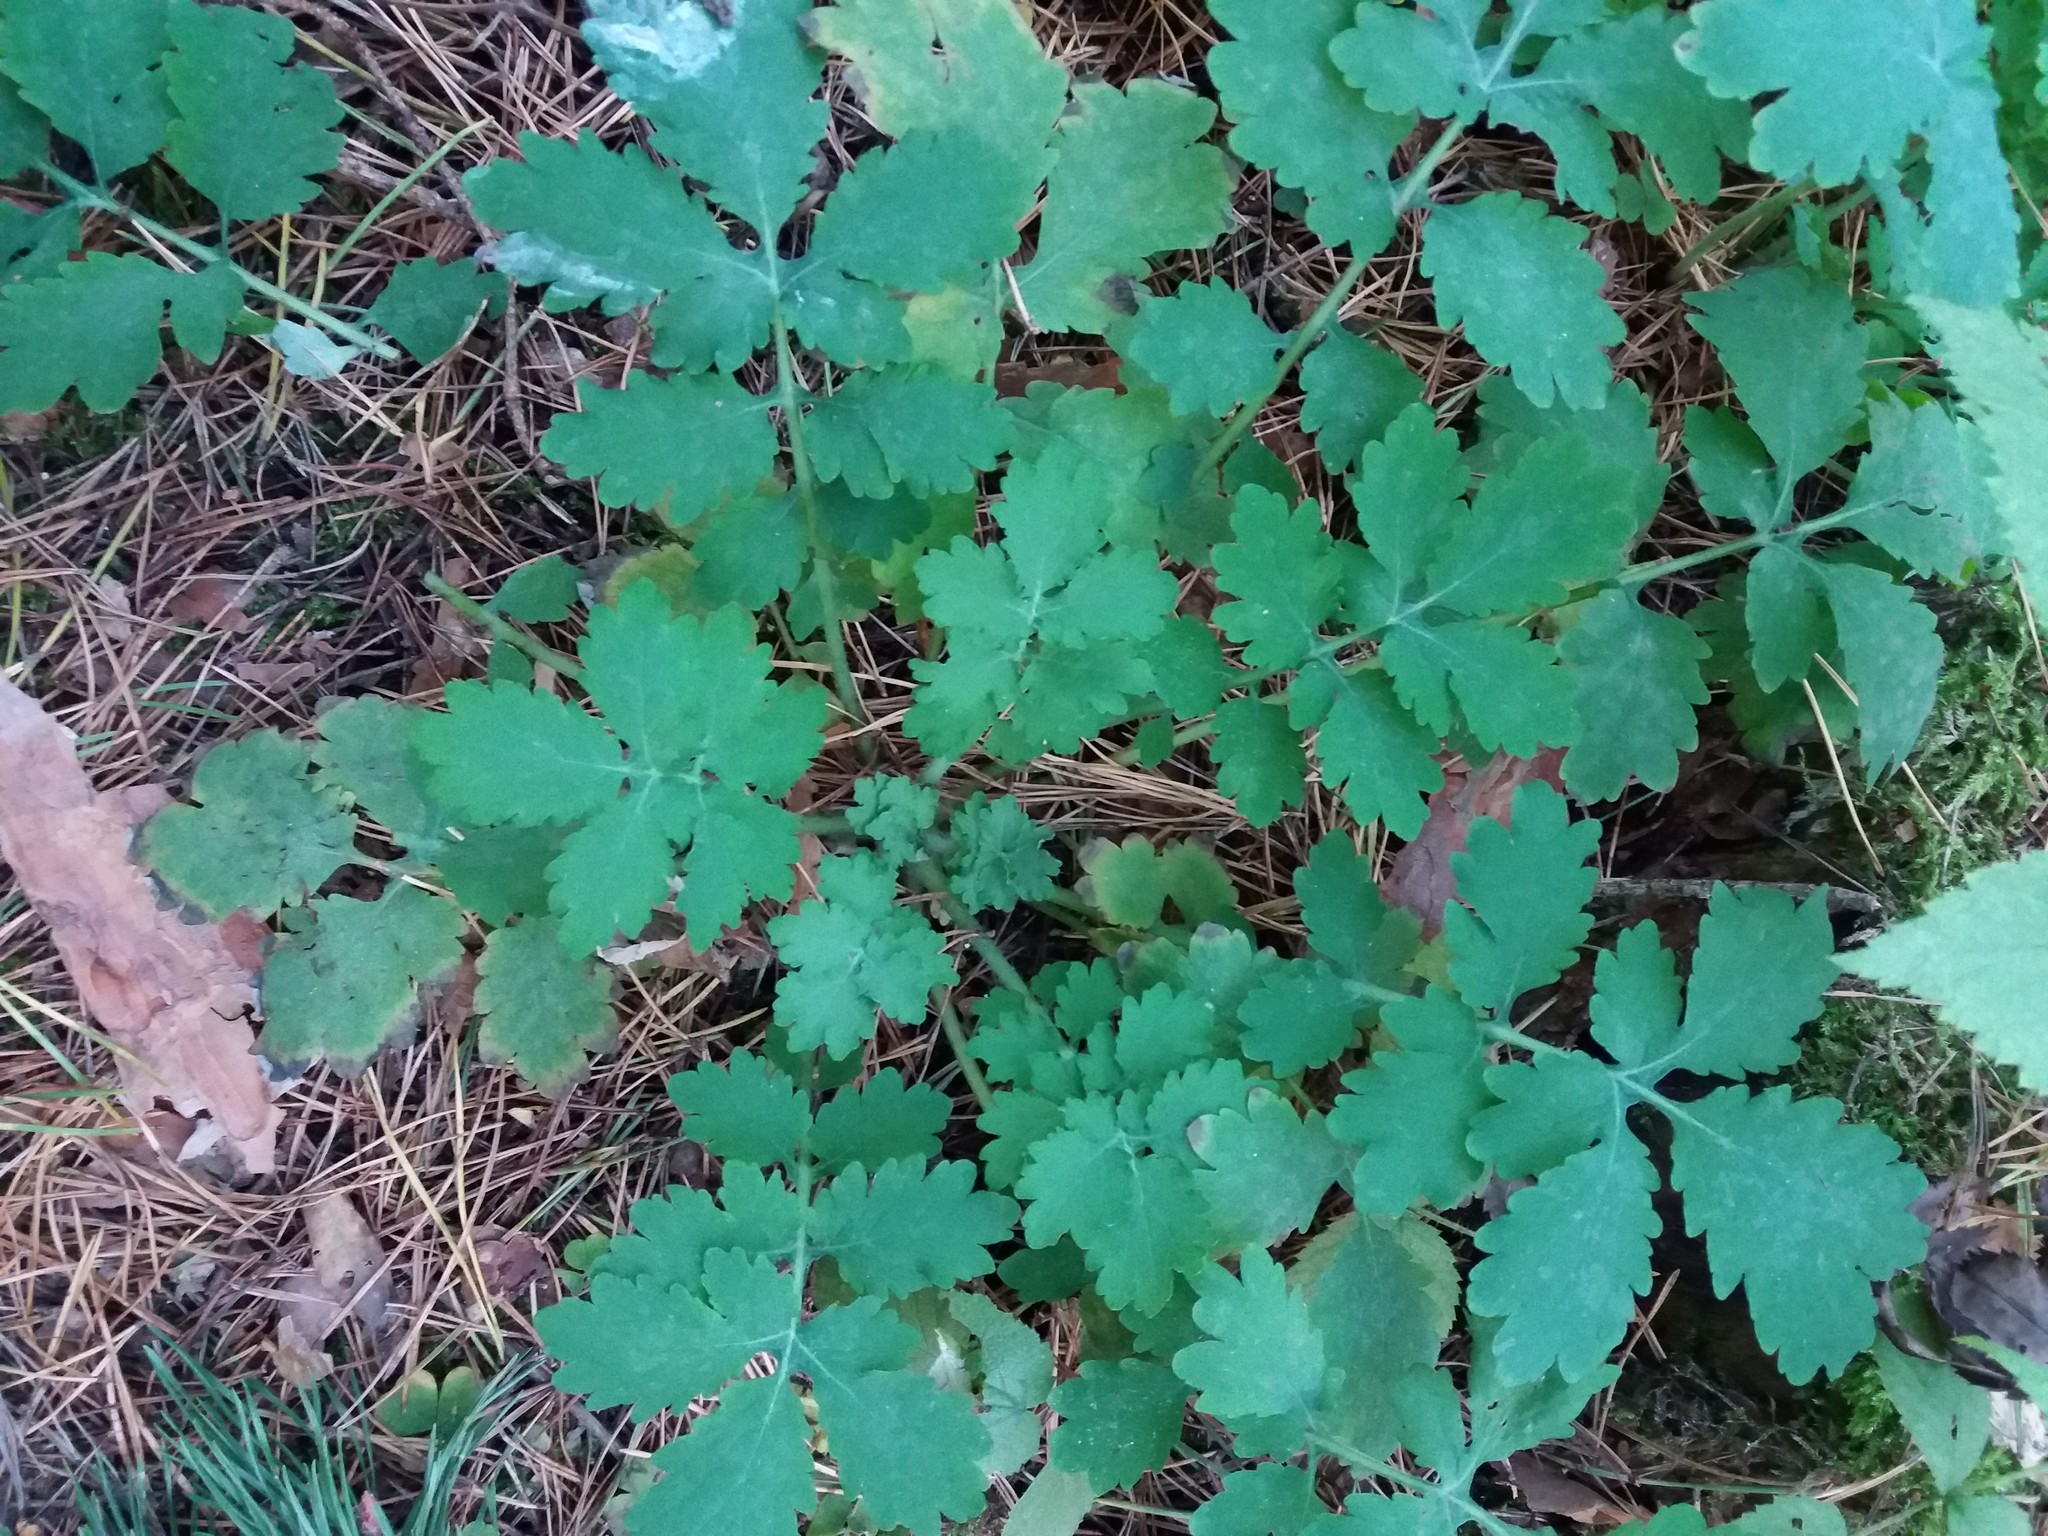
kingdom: Plantae
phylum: Tracheophyta
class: Magnoliopsida
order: Ranunculales
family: Papaveraceae
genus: Chelidonium
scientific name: Chelidonium majus
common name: Greater celandine
